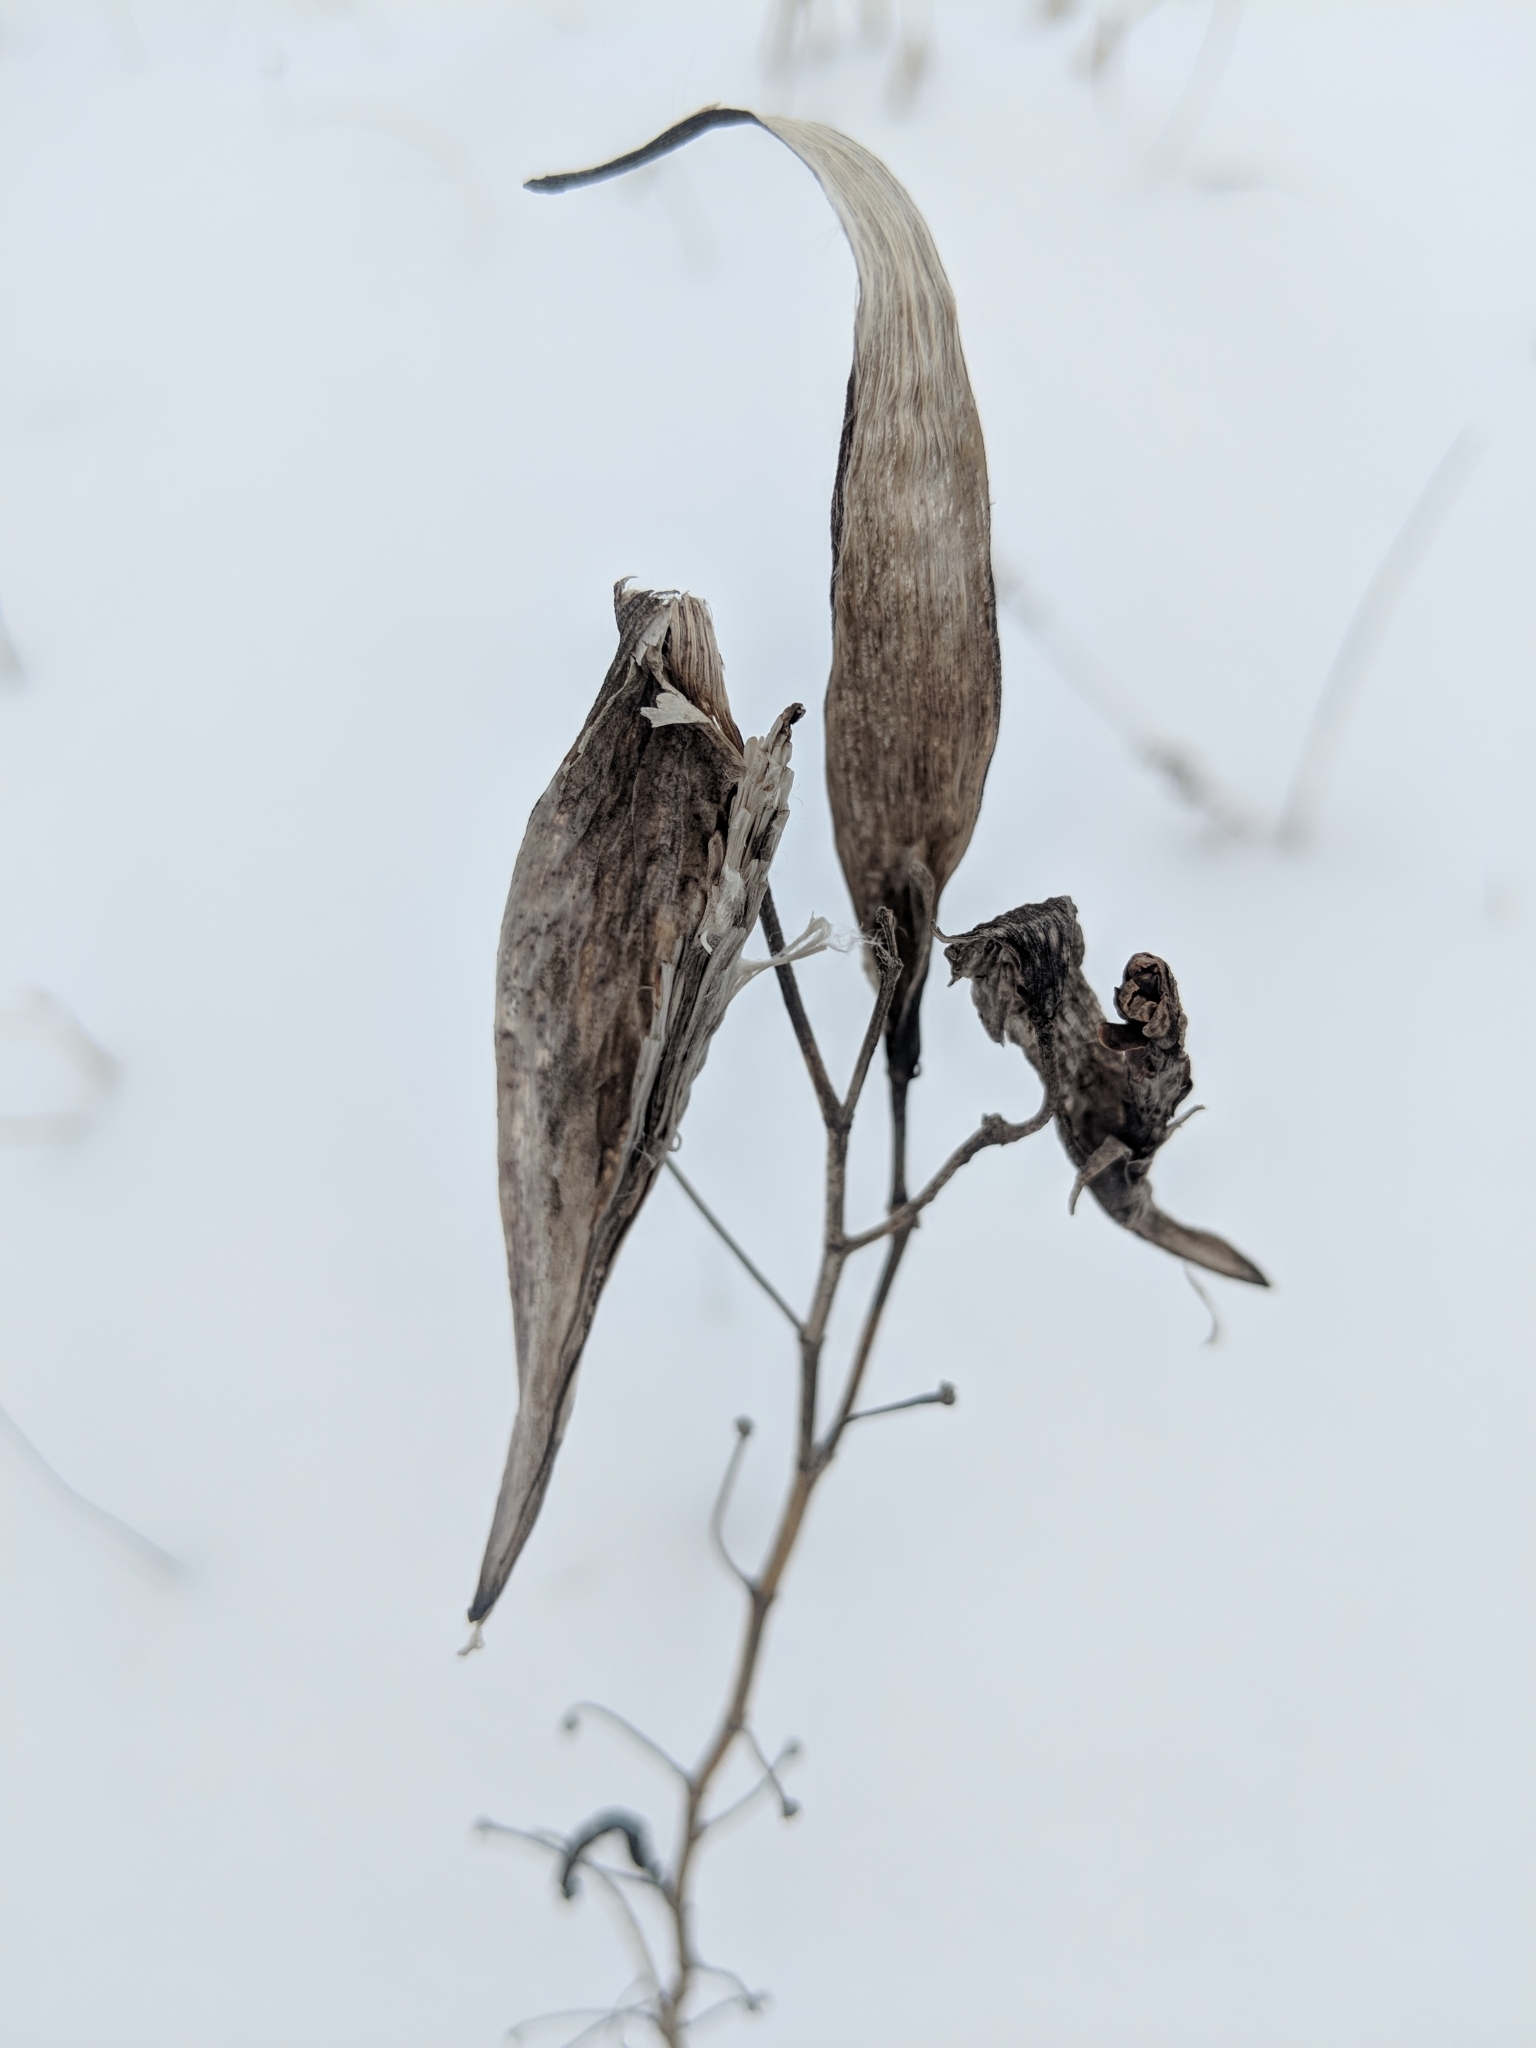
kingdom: Plantae
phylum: Tracheophyta
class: Magnoliopsida
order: Gentianales
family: Apocynaceae
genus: Asclepias
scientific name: Asclepias verticillata
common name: Eastern whorled milkweed
